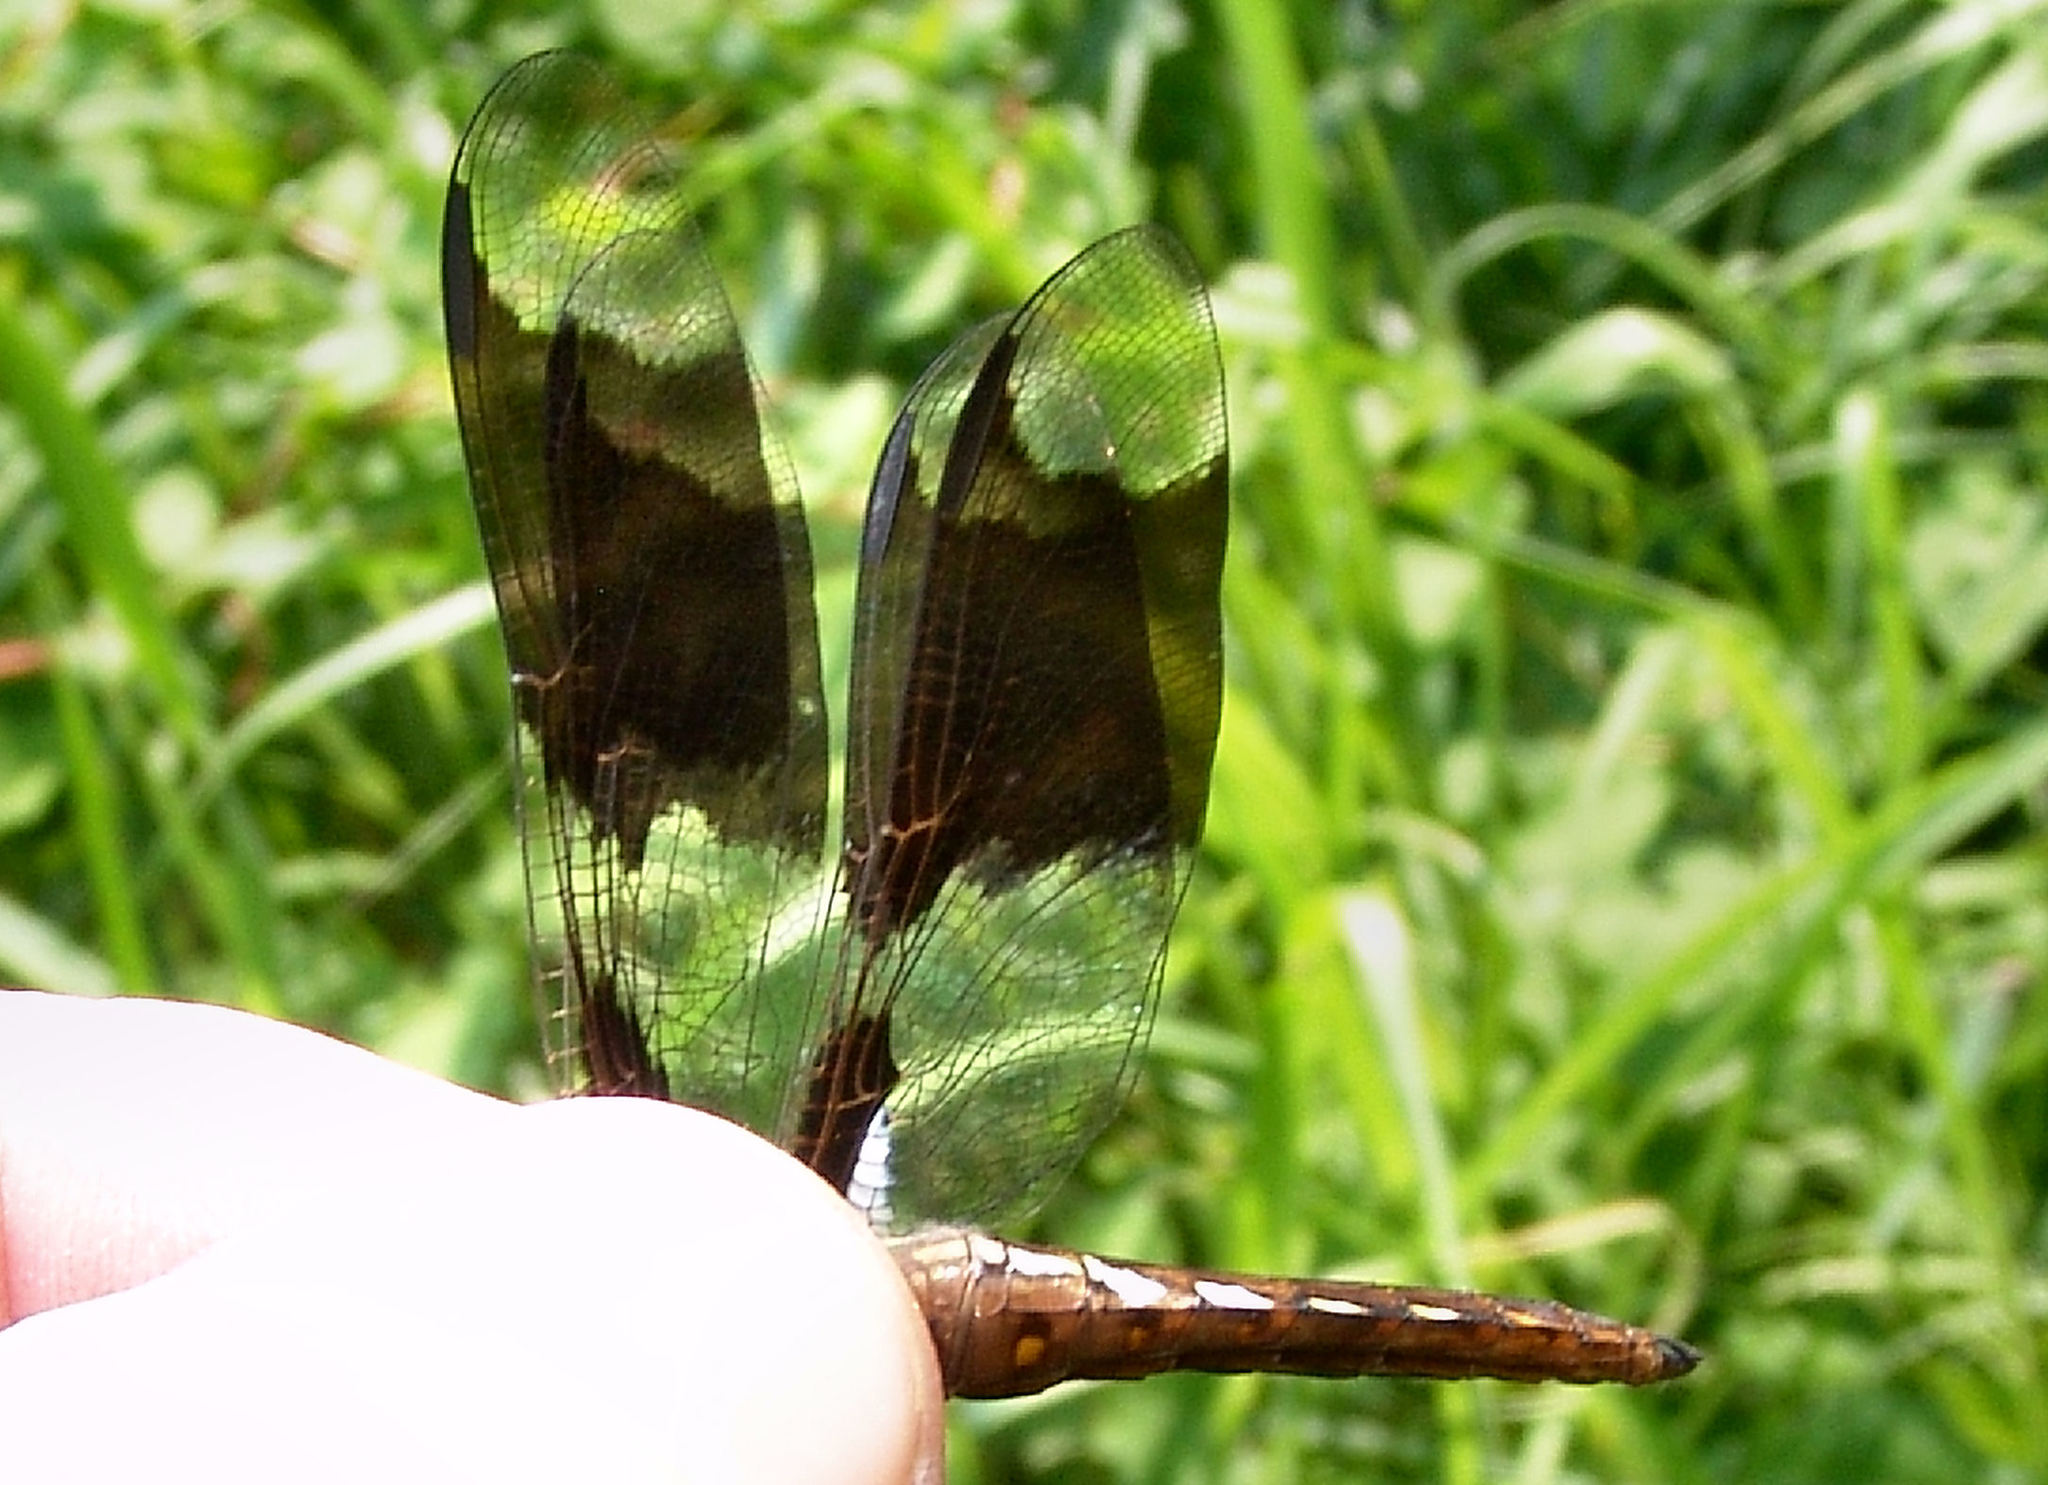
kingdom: Animalia
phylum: Arthropoda
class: Insecta
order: Odonata
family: Libellulidae
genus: Plathemis
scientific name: Plathemis lydia
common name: Common whitetail
